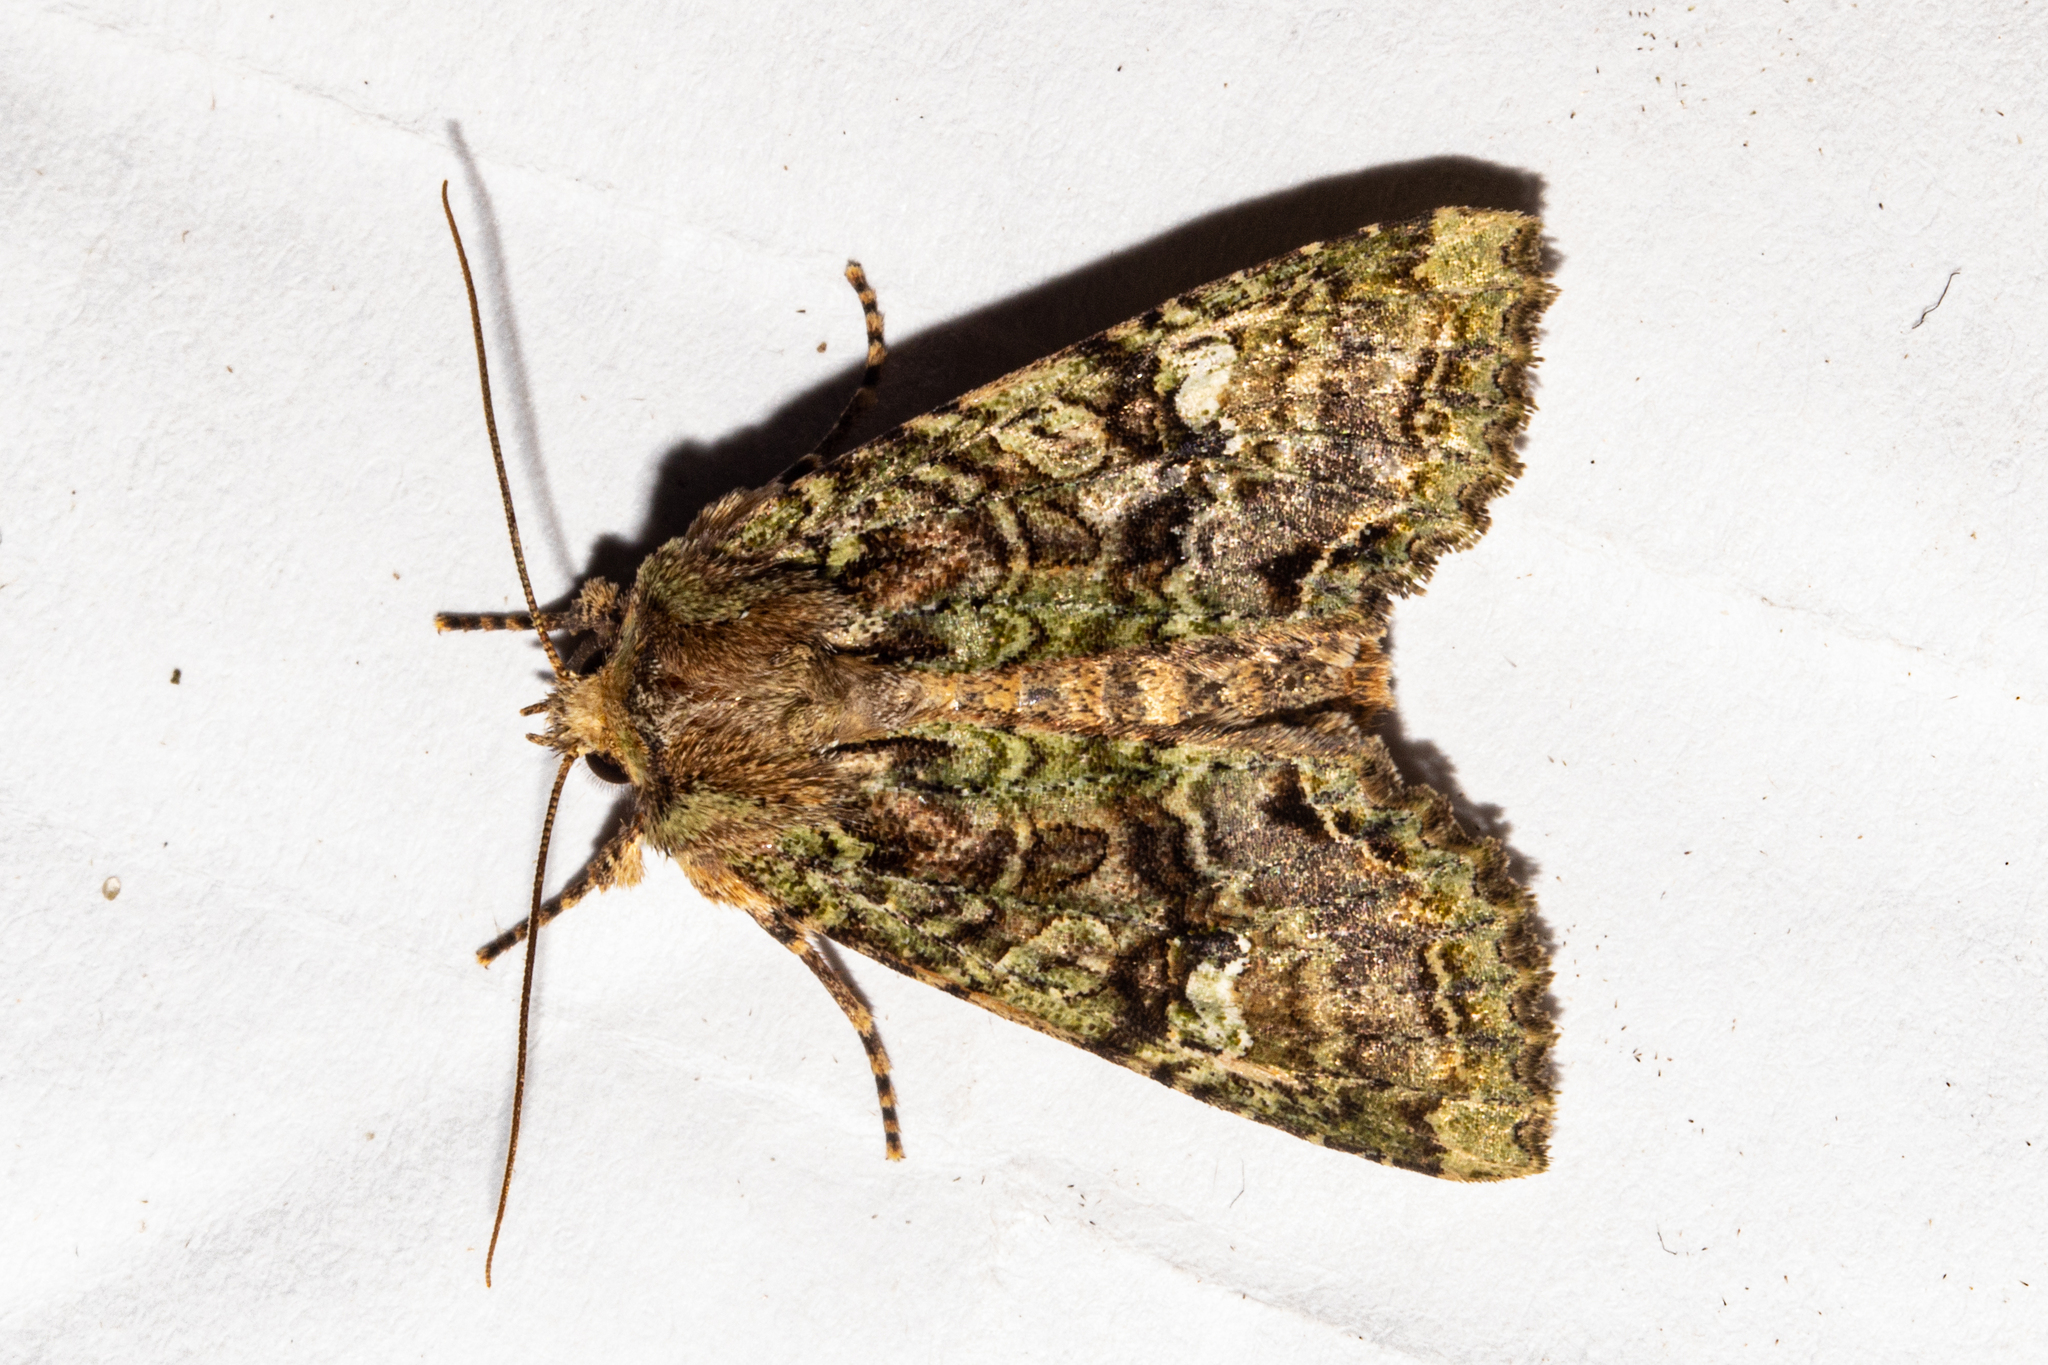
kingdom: Animalia
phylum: Arthropoda
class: Insecta
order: Lepidoptera
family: Noctuidae
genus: Meterana
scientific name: Meterana
